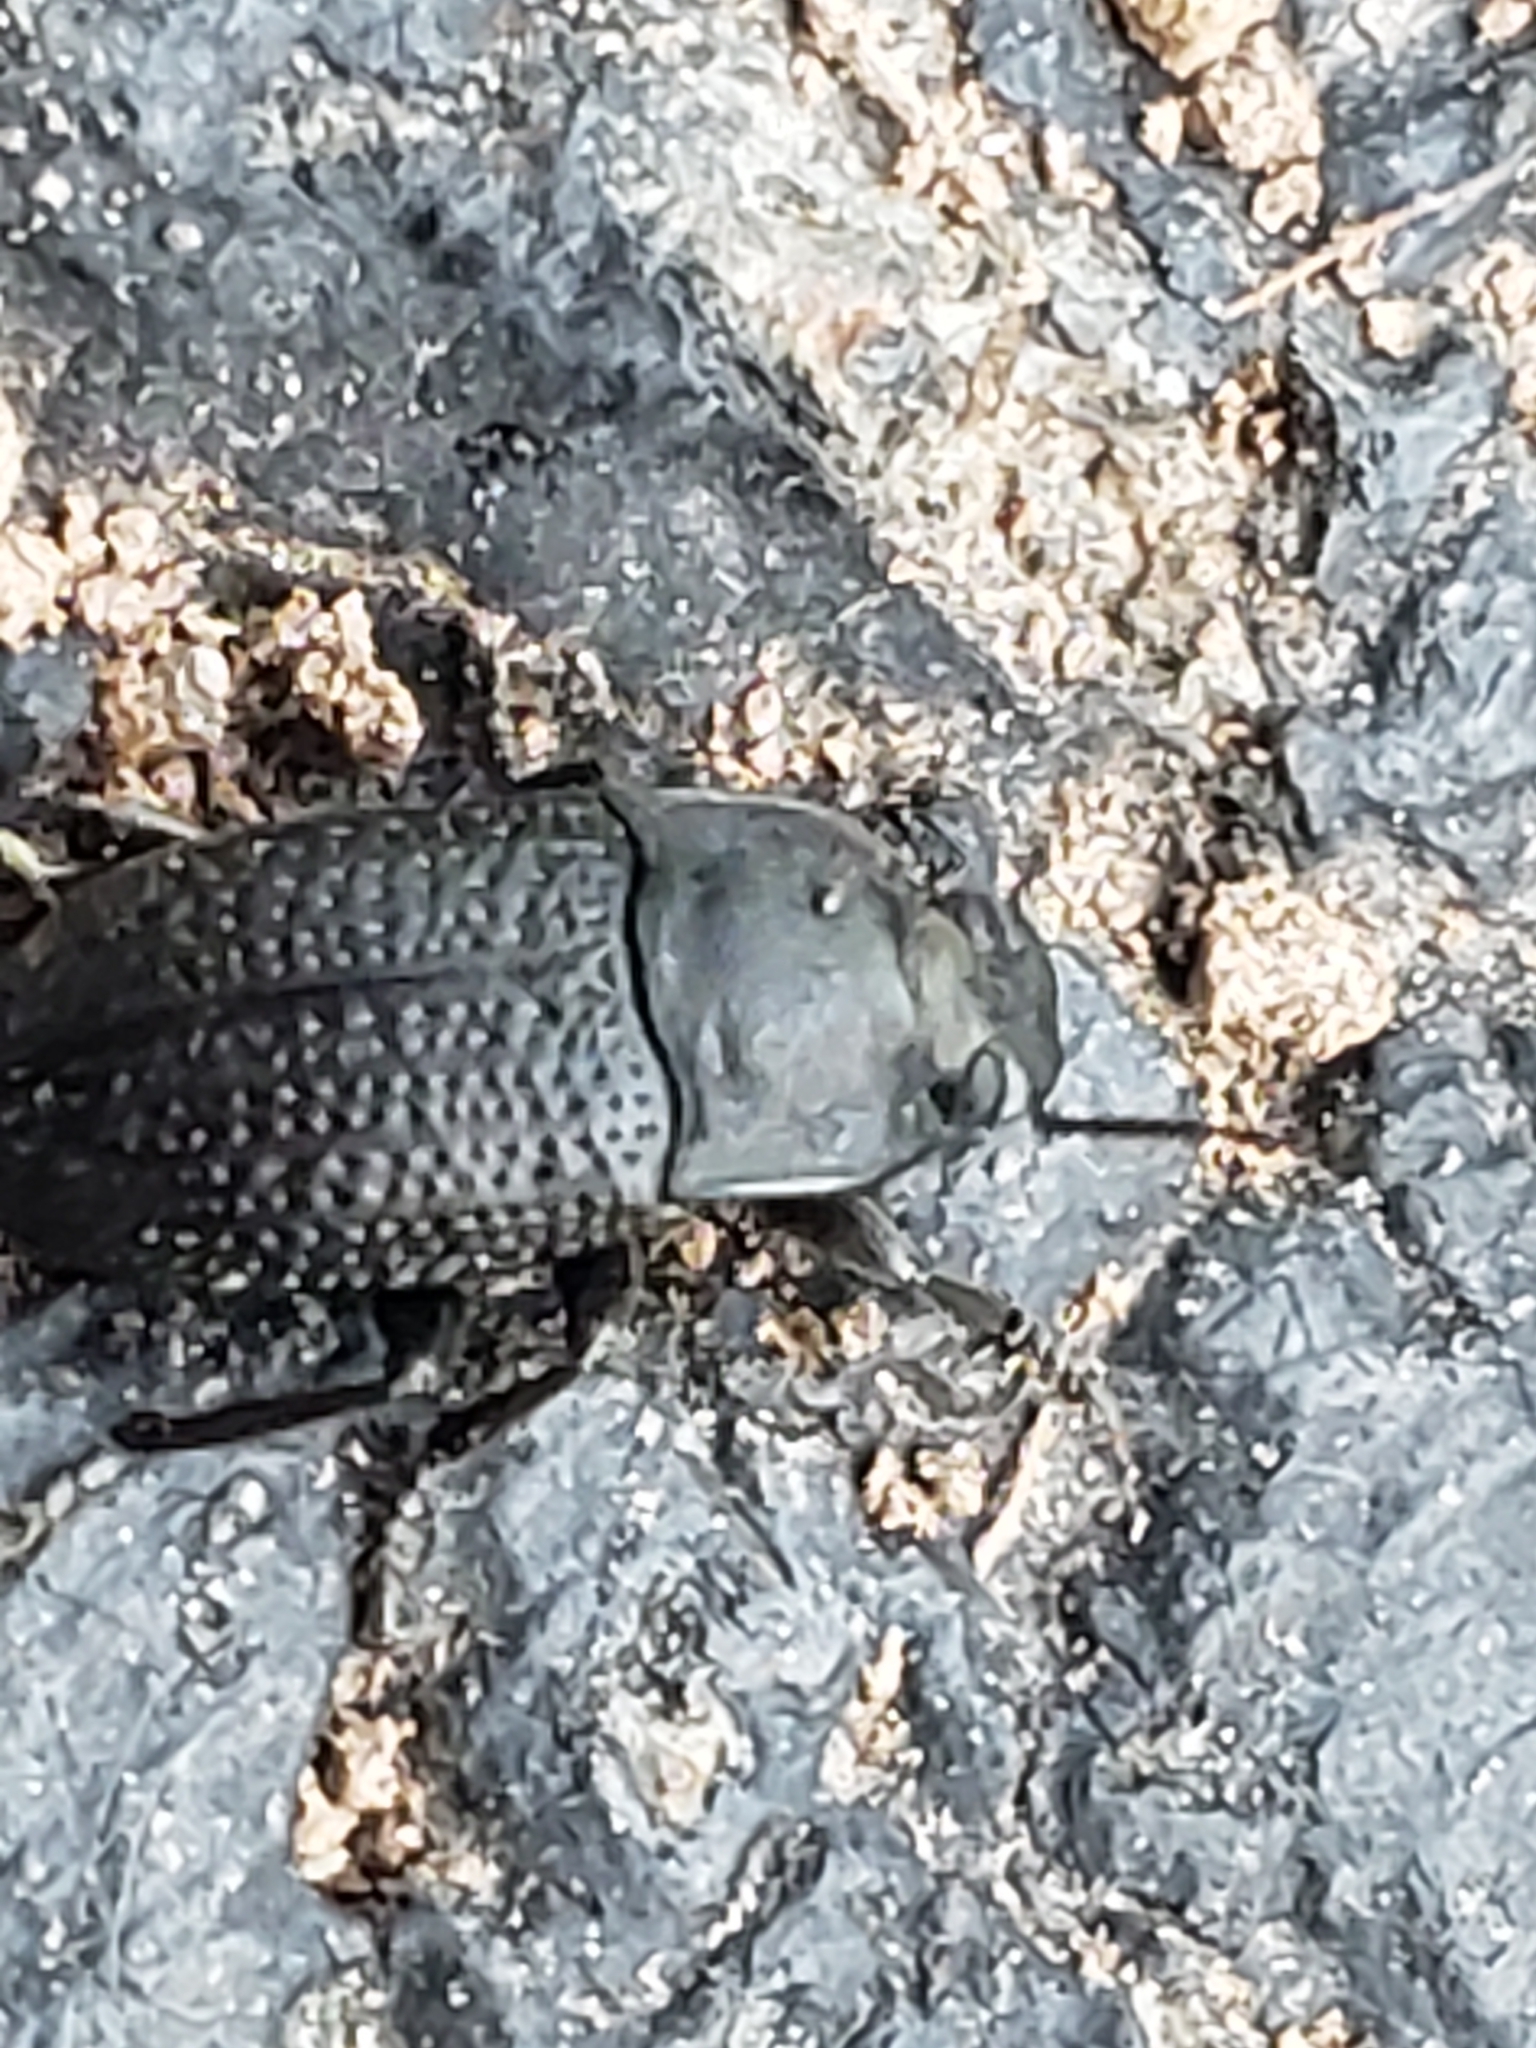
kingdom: Animalia
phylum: Arthropoda
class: Insecta
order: Coleoptera
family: Tenebrionidae
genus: Asiopus
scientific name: Asiopus
